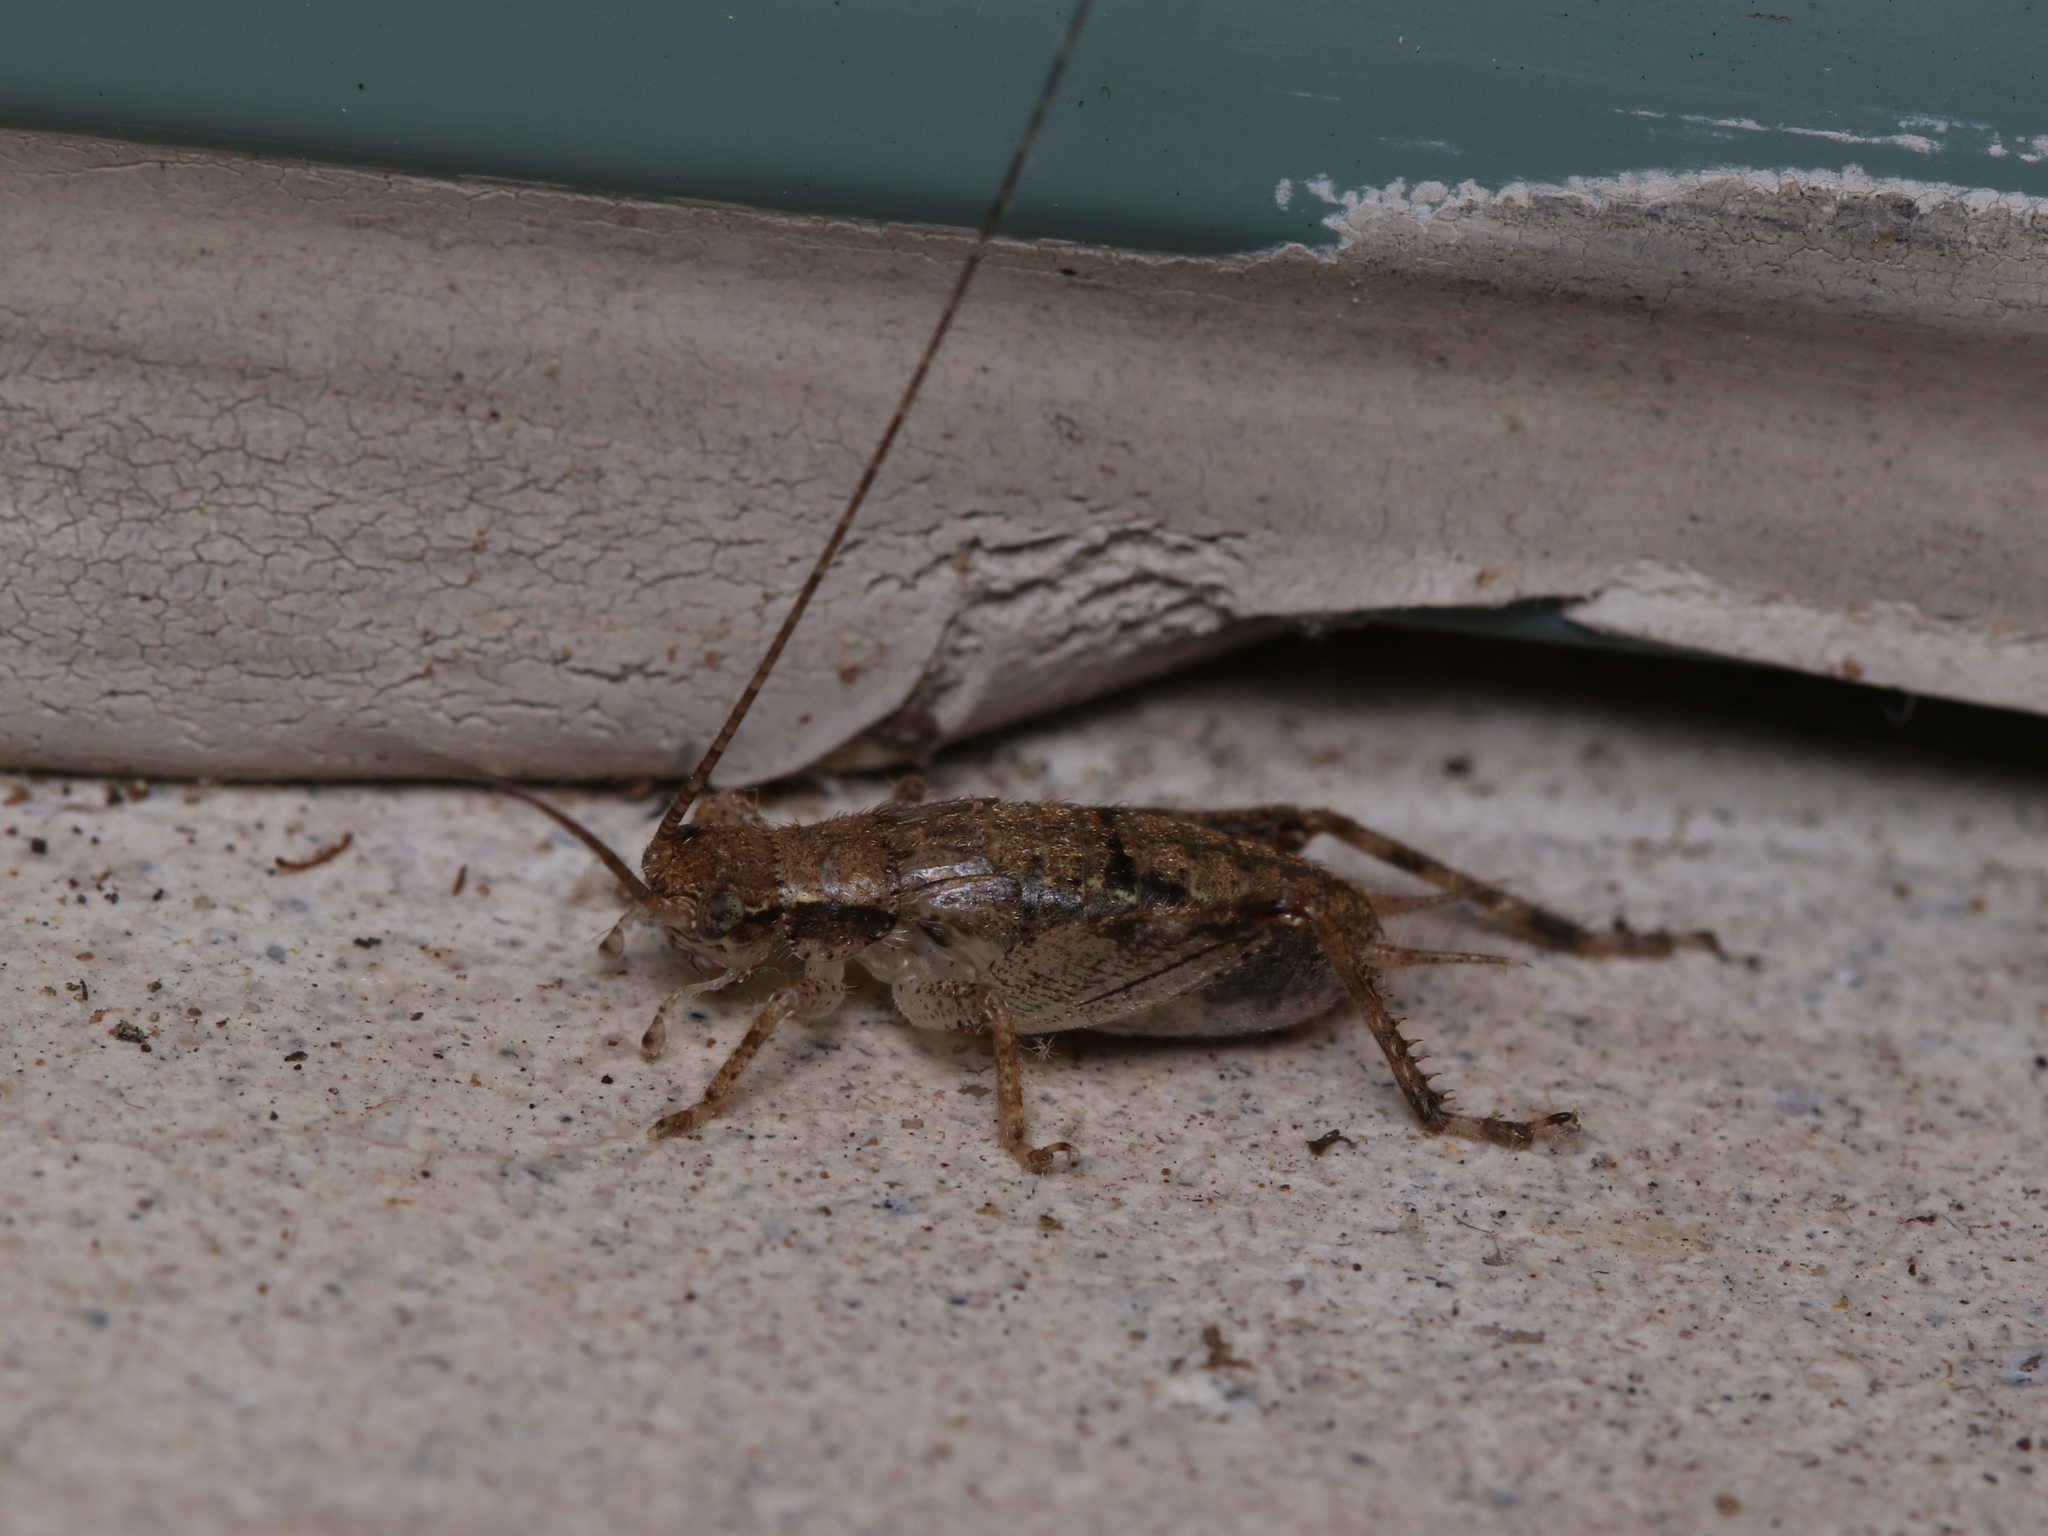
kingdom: Animalia
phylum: Arthropoda
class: Insecta
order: Orthoptera
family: Gryllidae
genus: Hapithus
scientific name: Hapithus saltator
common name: Jumping bush cricket
